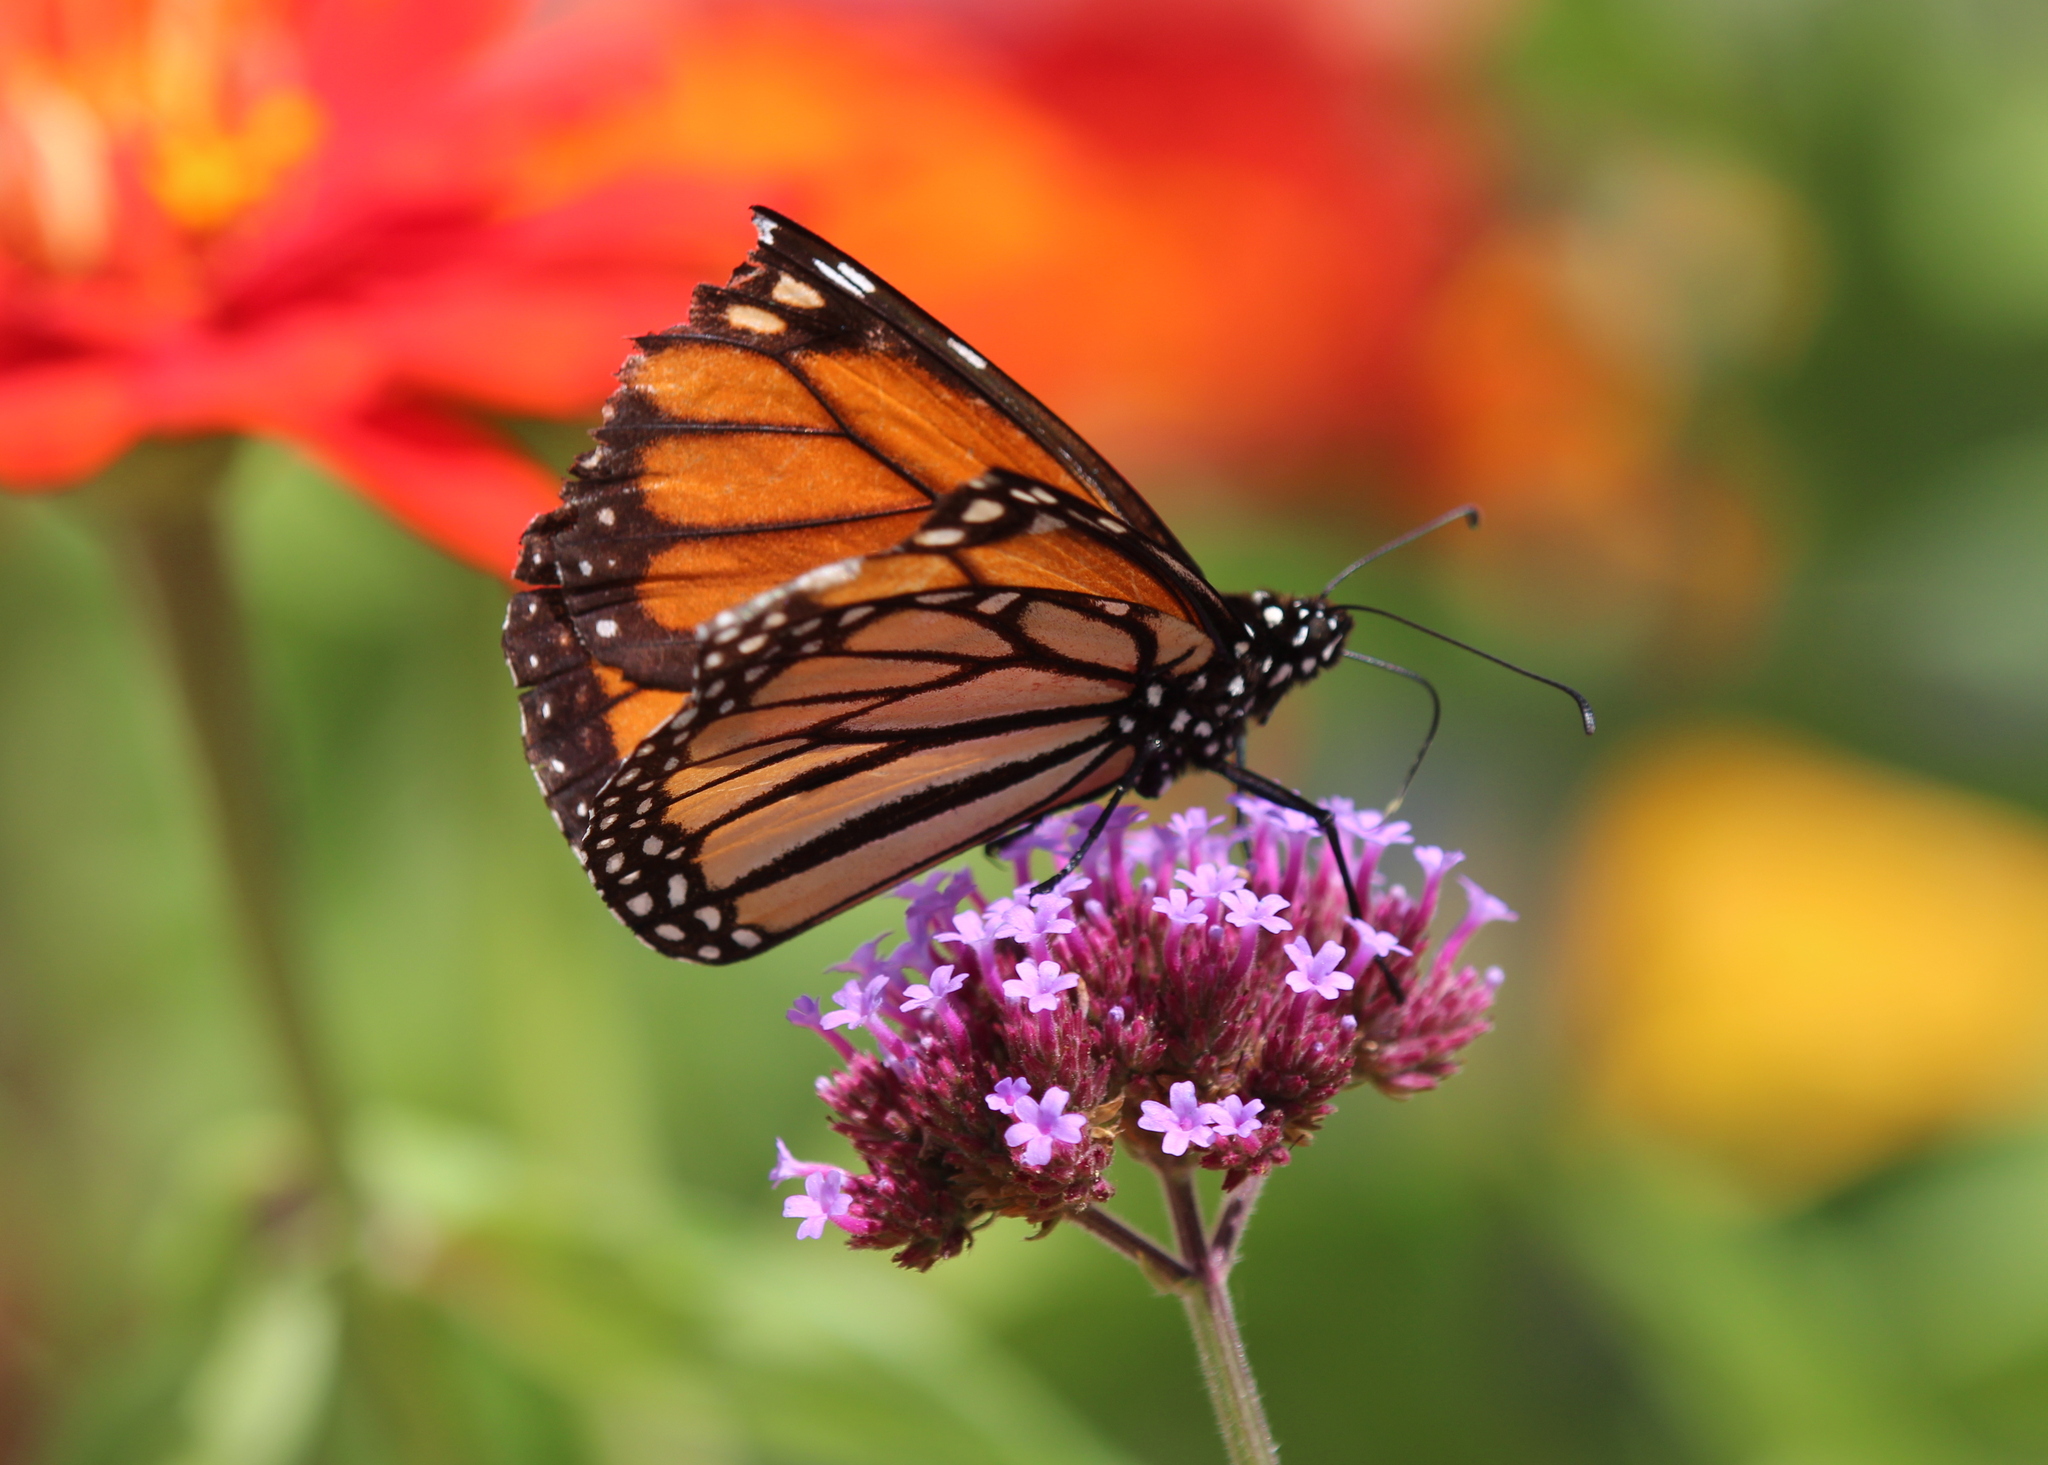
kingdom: Animalia
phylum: Arthropoda
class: Insecta
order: Lepidoptera
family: Nymphalidae
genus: Danaus
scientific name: Danaus plexippus
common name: Monarch
